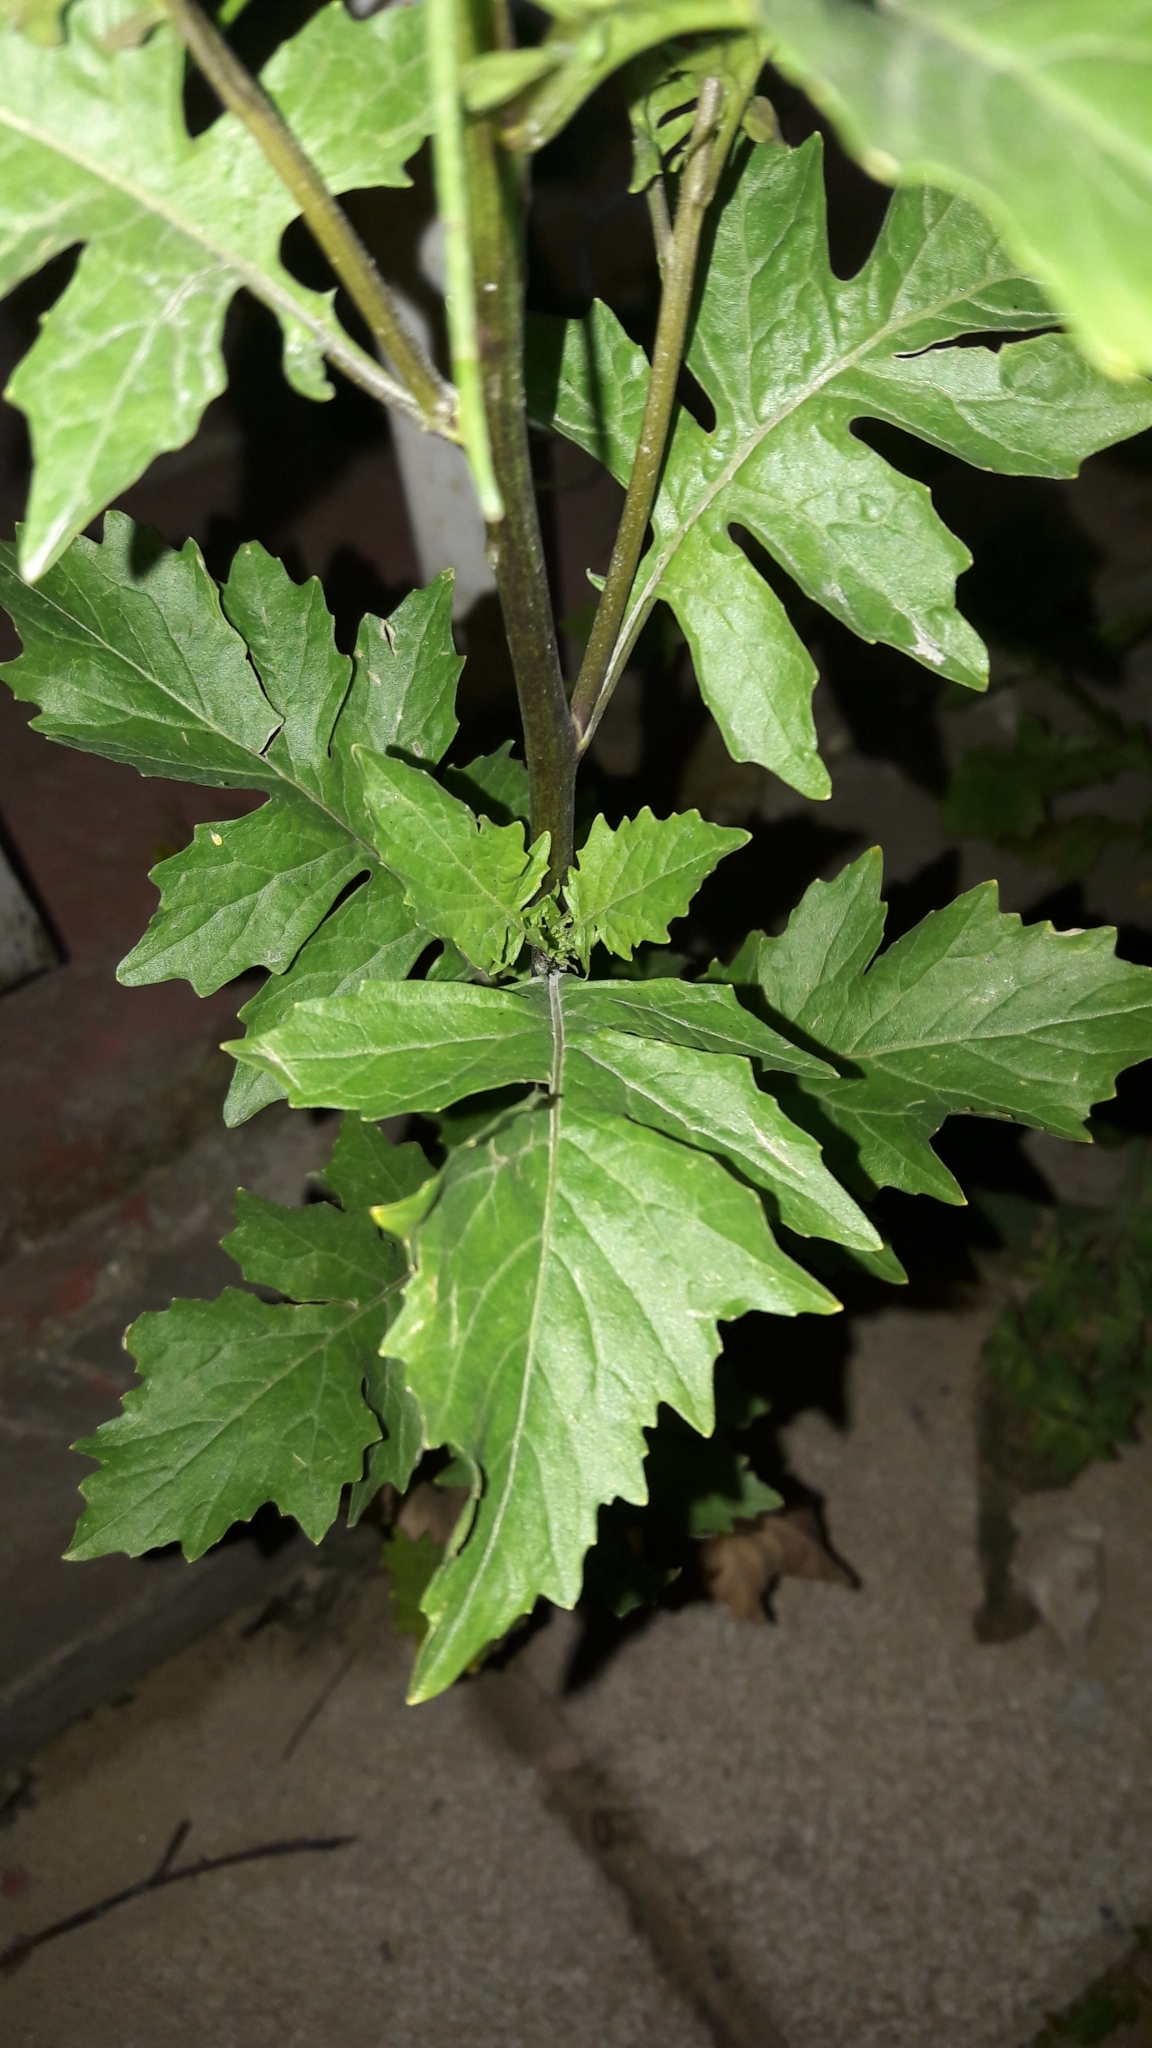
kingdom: Plantae
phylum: Tracheophyta
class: Magnoliopsida
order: Brassicales
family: Brassicaceae
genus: Sisymbrium
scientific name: Sisymbrium irio
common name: London rocket
